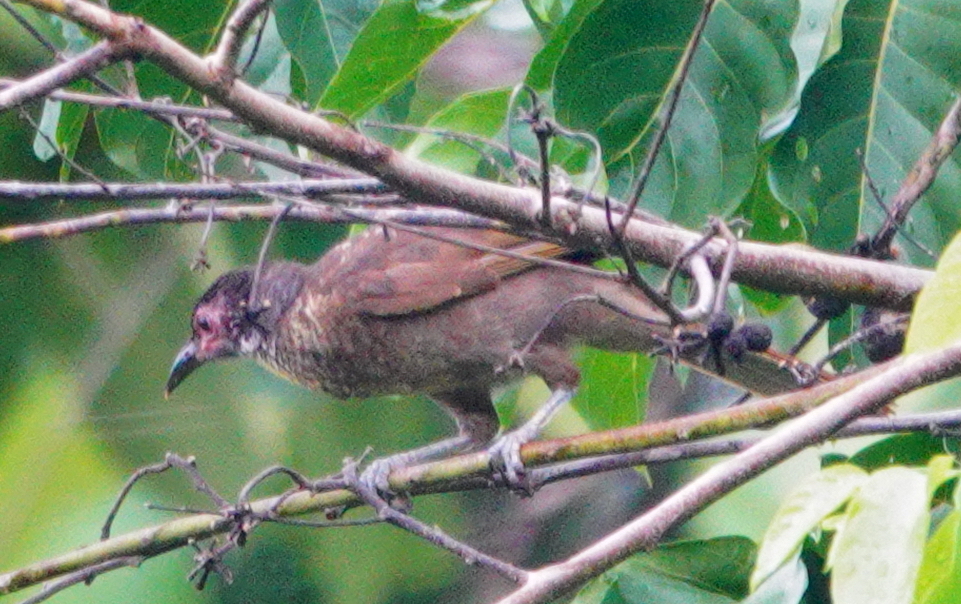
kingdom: Animalia
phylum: Chordata
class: Aves
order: Passeriformes
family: Meliphagidae
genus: Philemon
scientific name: Philemon fuscicapillus
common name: Dusky friarbird
